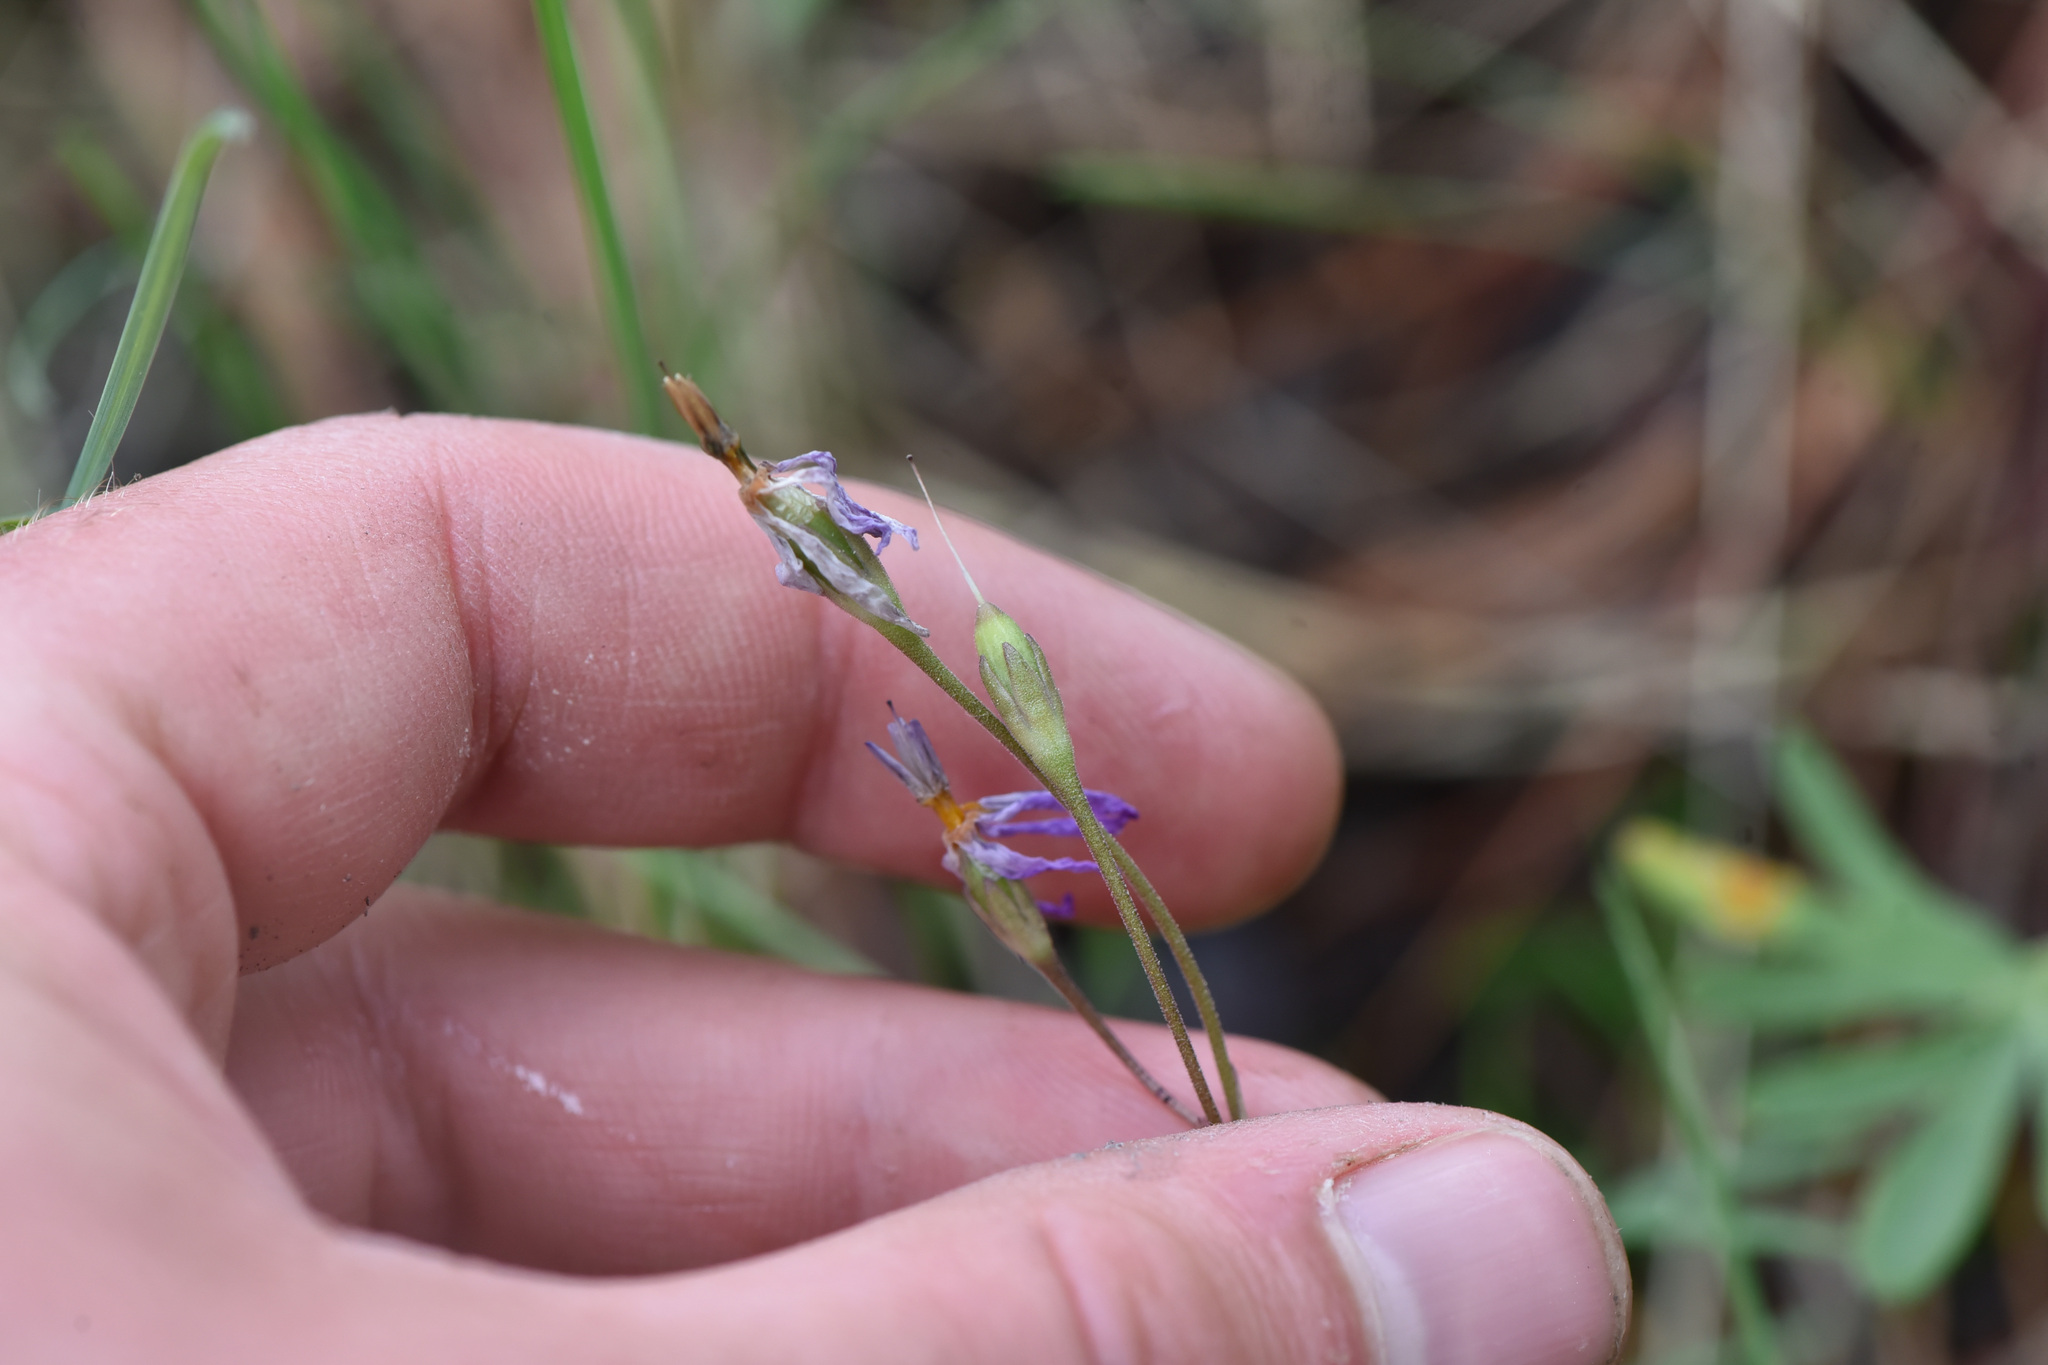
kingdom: Plantae
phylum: Tracheophyta
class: Magnoliopsida
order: Ericales
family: Primulaceae
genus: Dodecatheon
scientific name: Dodecatheon pulchellum
